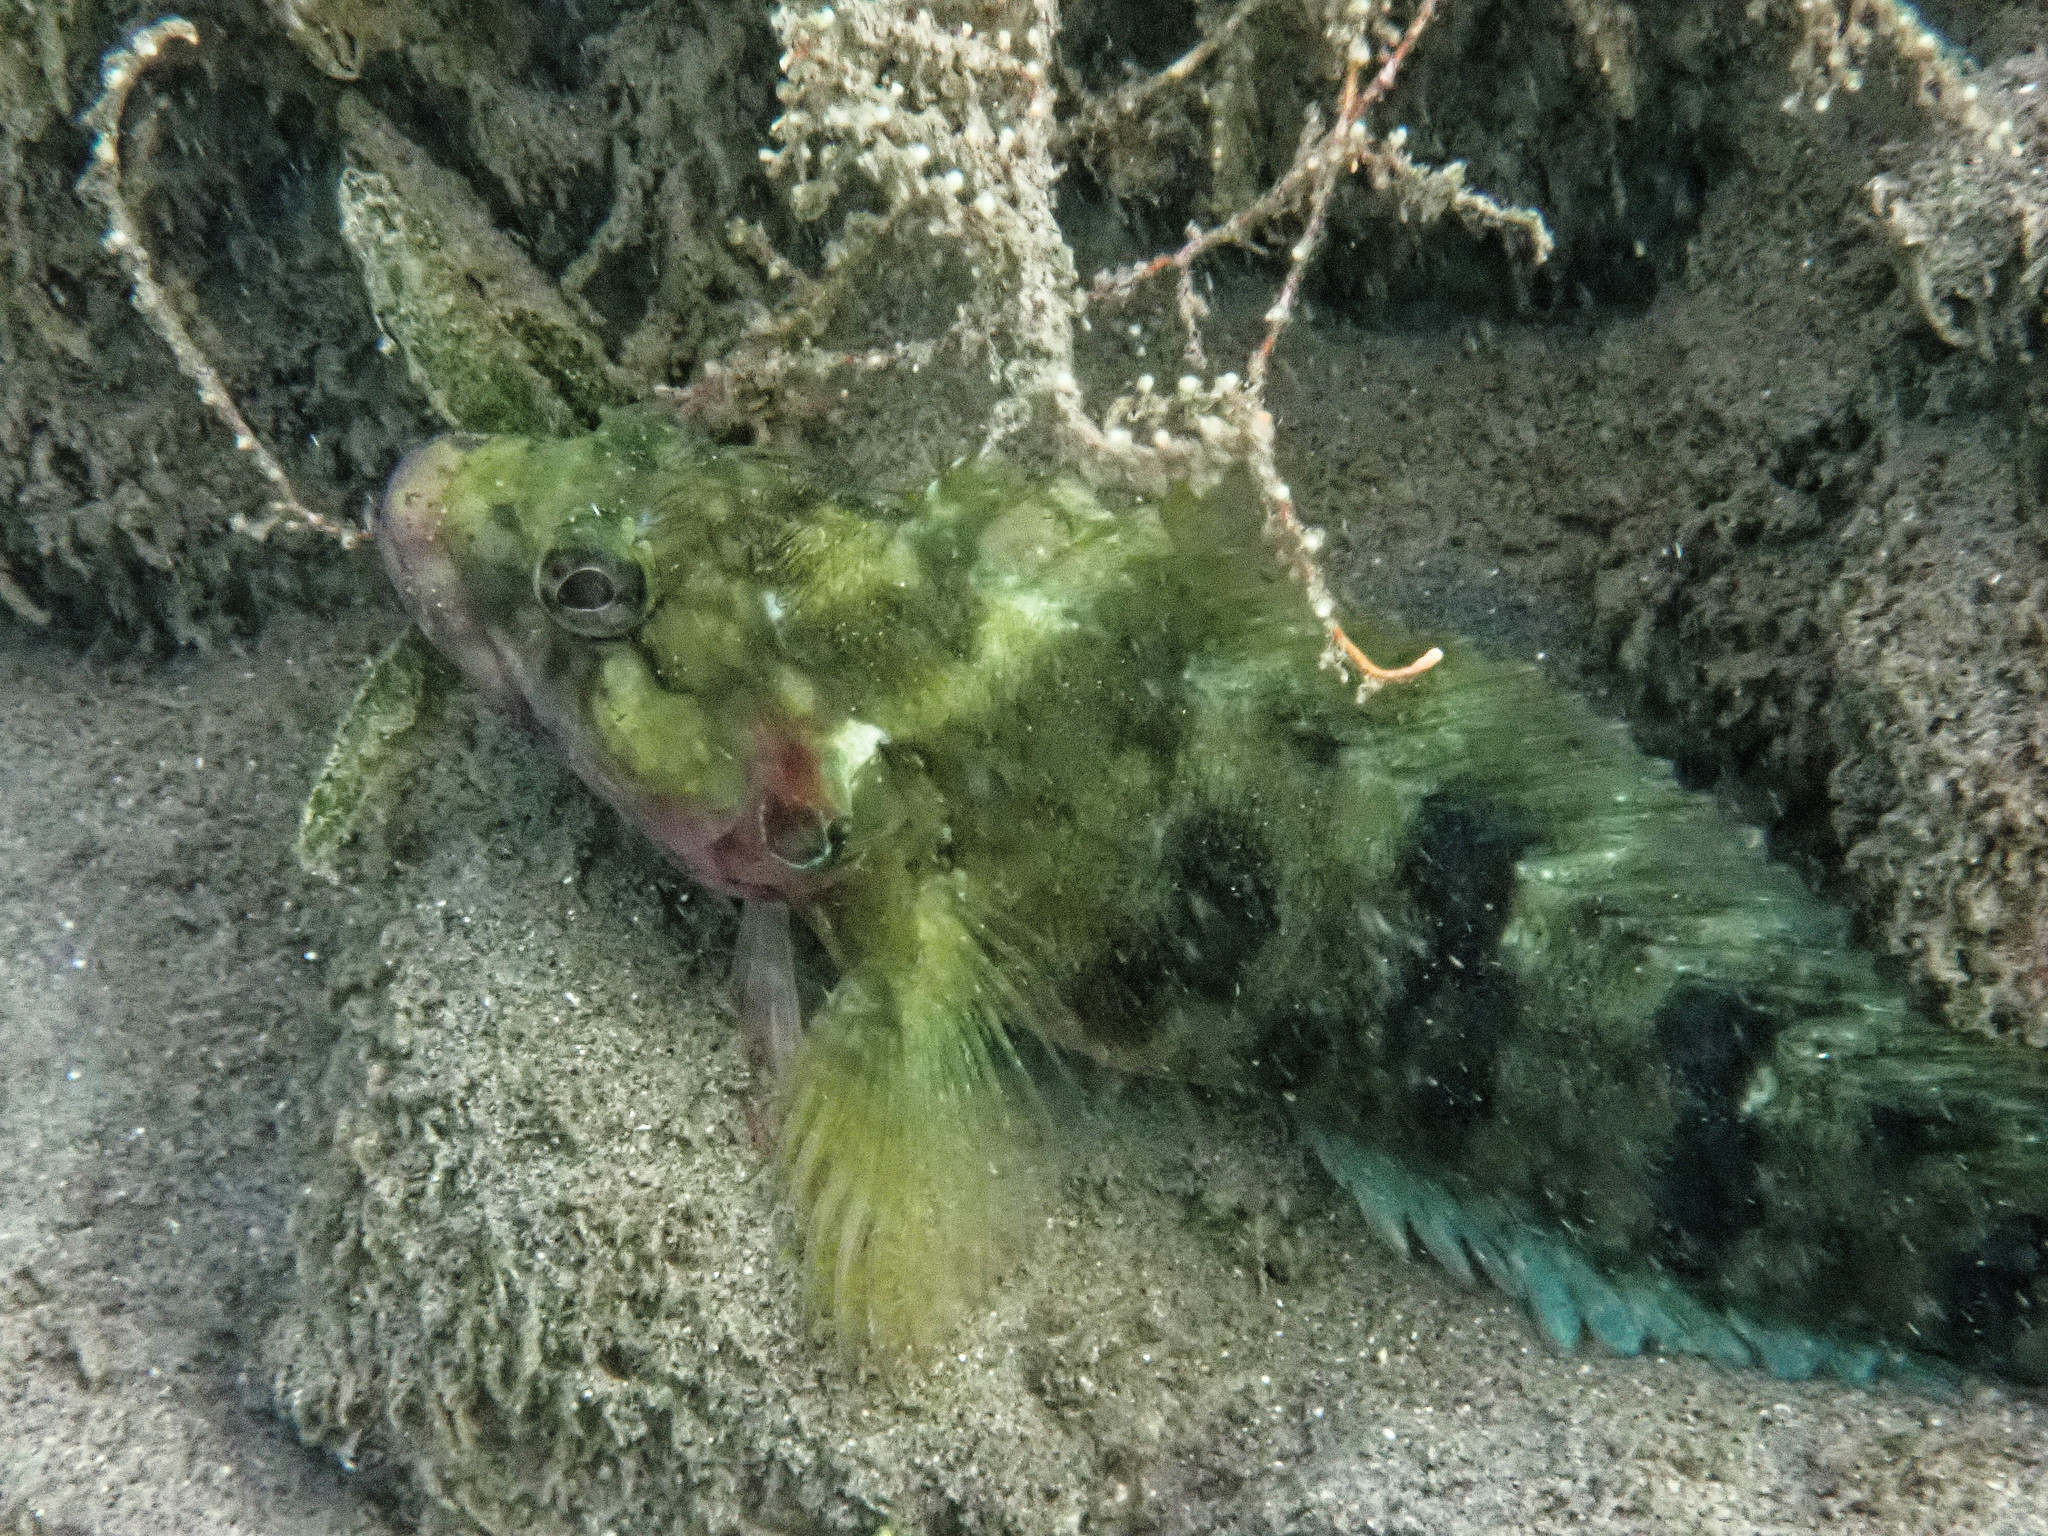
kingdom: Animalia
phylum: Chordata
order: Perciformes
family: Labrisomidae
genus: Labrisomus
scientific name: Labrisomus nuchipinnis
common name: Hairy blenny
